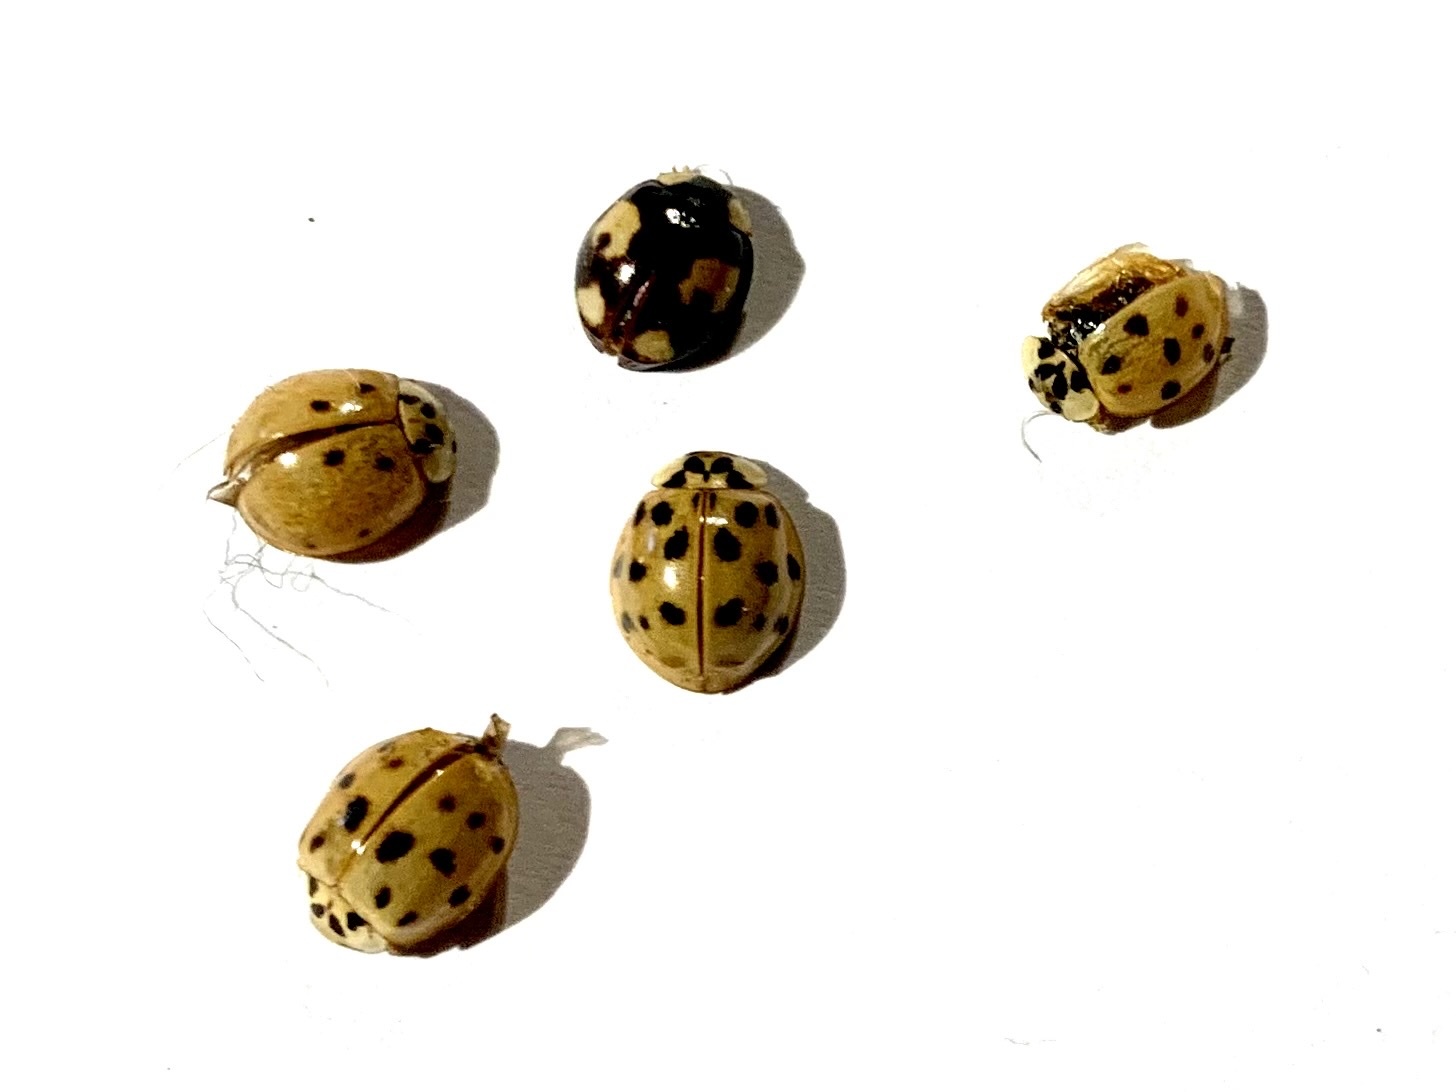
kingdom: Animalia
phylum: Arthropoda
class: Insecta
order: Coleoptera
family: Coccinellidae
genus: Harmonia
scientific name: Harmonia axyridis
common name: Harlequin ladybird
